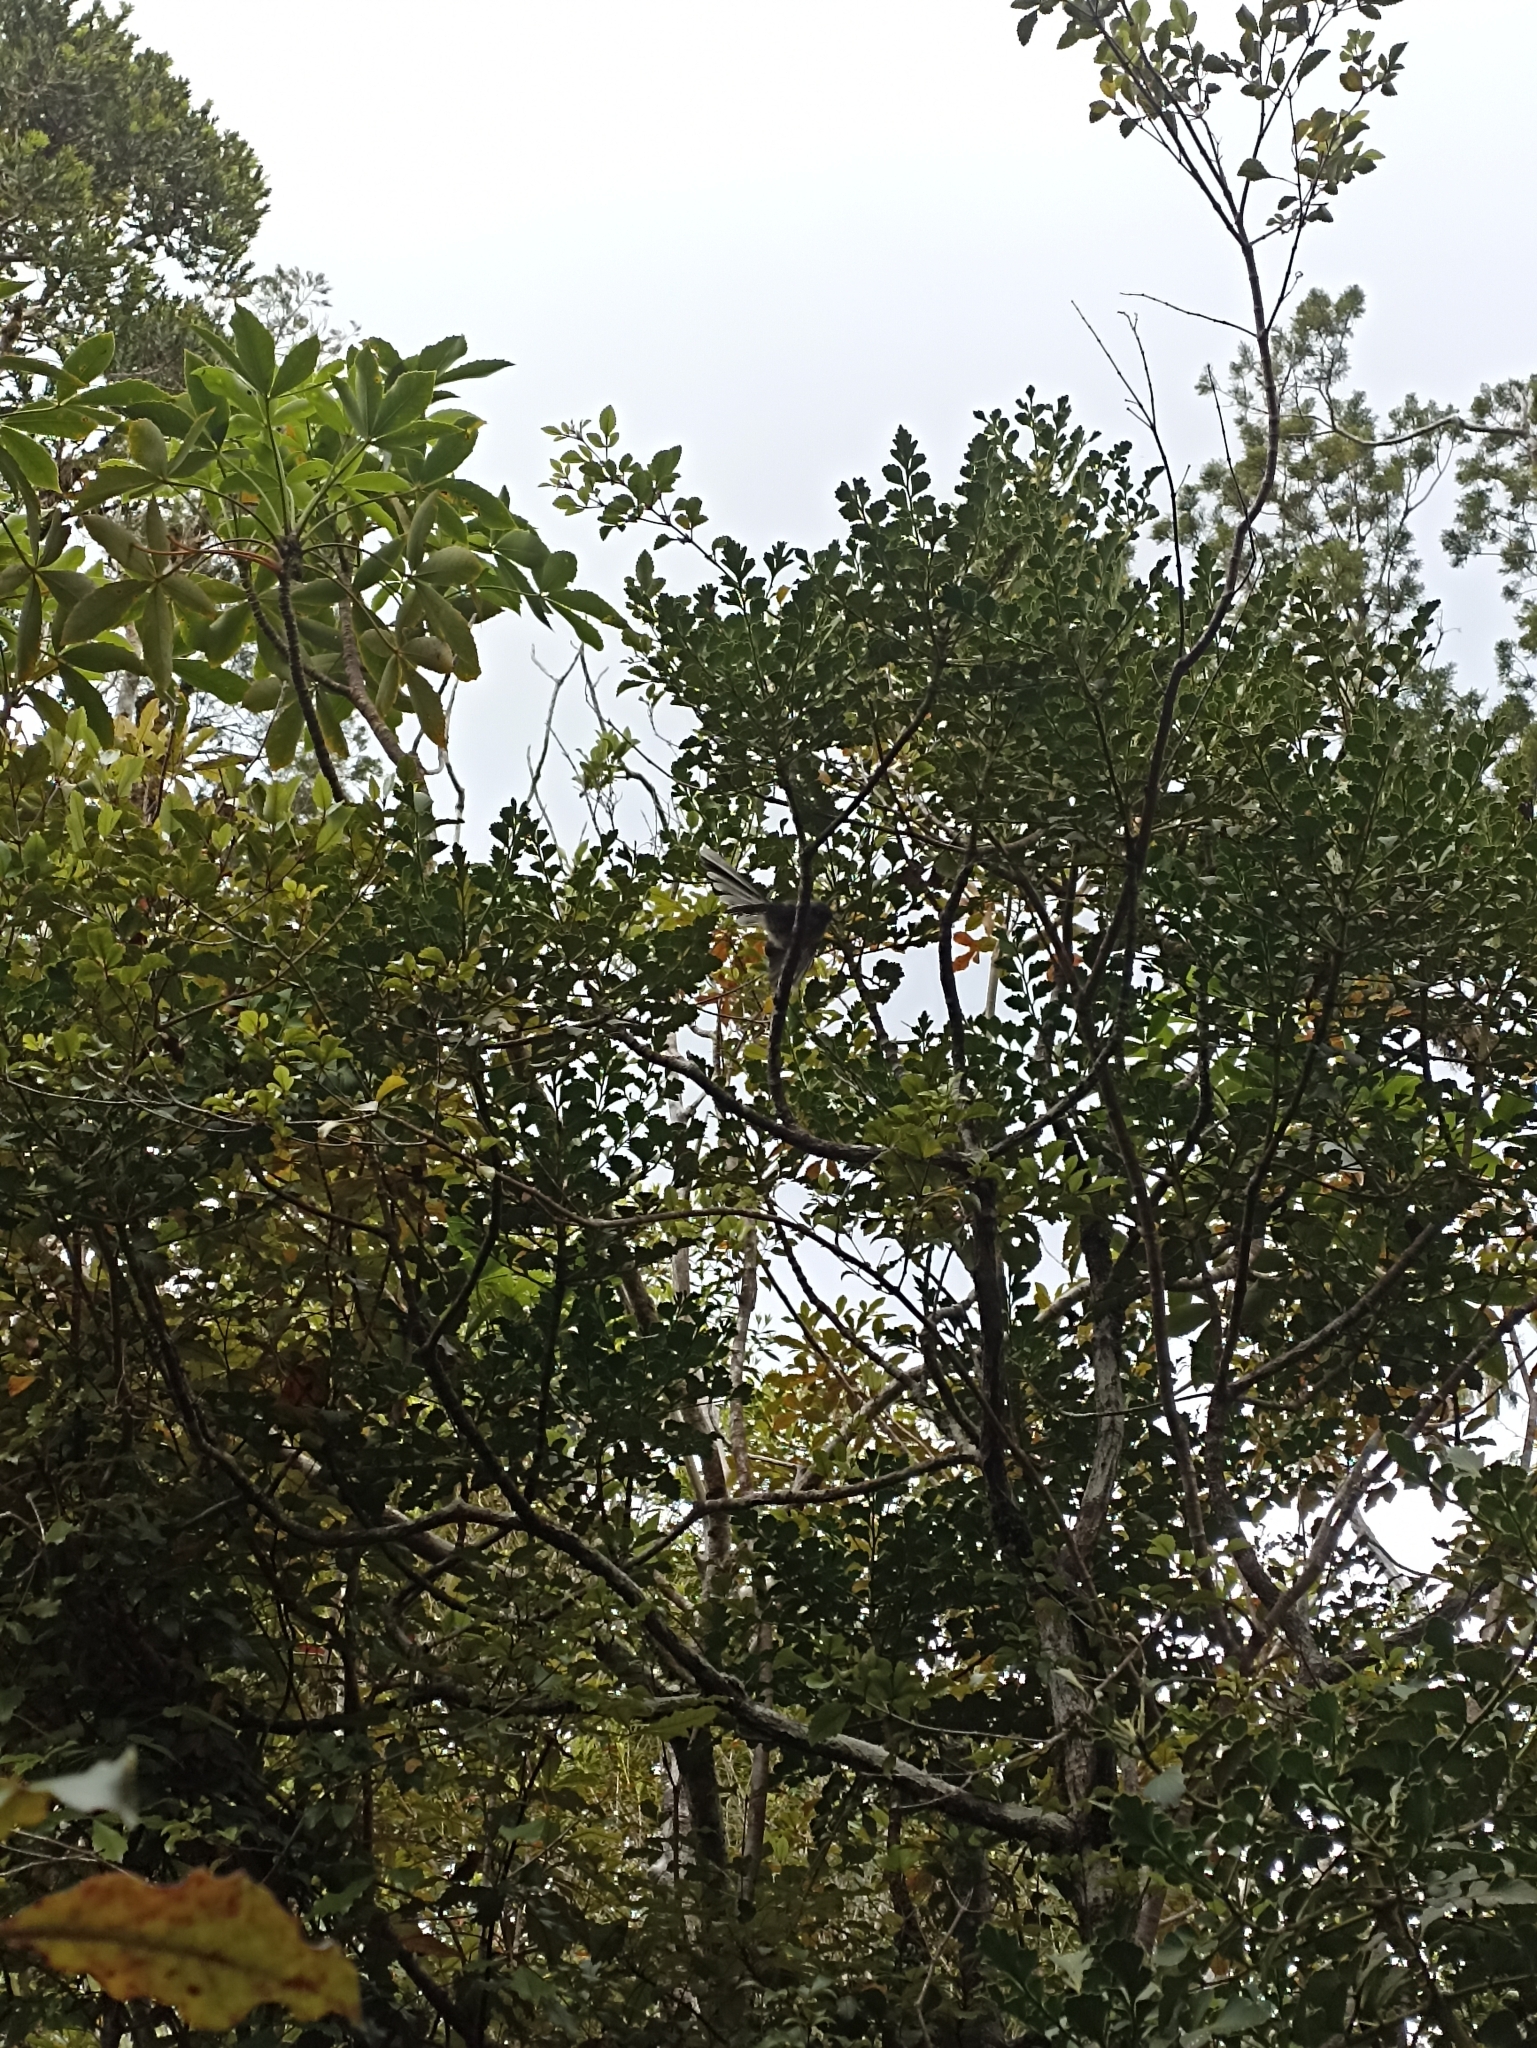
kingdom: Animalia
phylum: Chordata
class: Aves
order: Passeriformes
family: Rhipiduridae
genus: Rhipidura
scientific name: Rhipidura fuliginosa
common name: New zealand fantail
